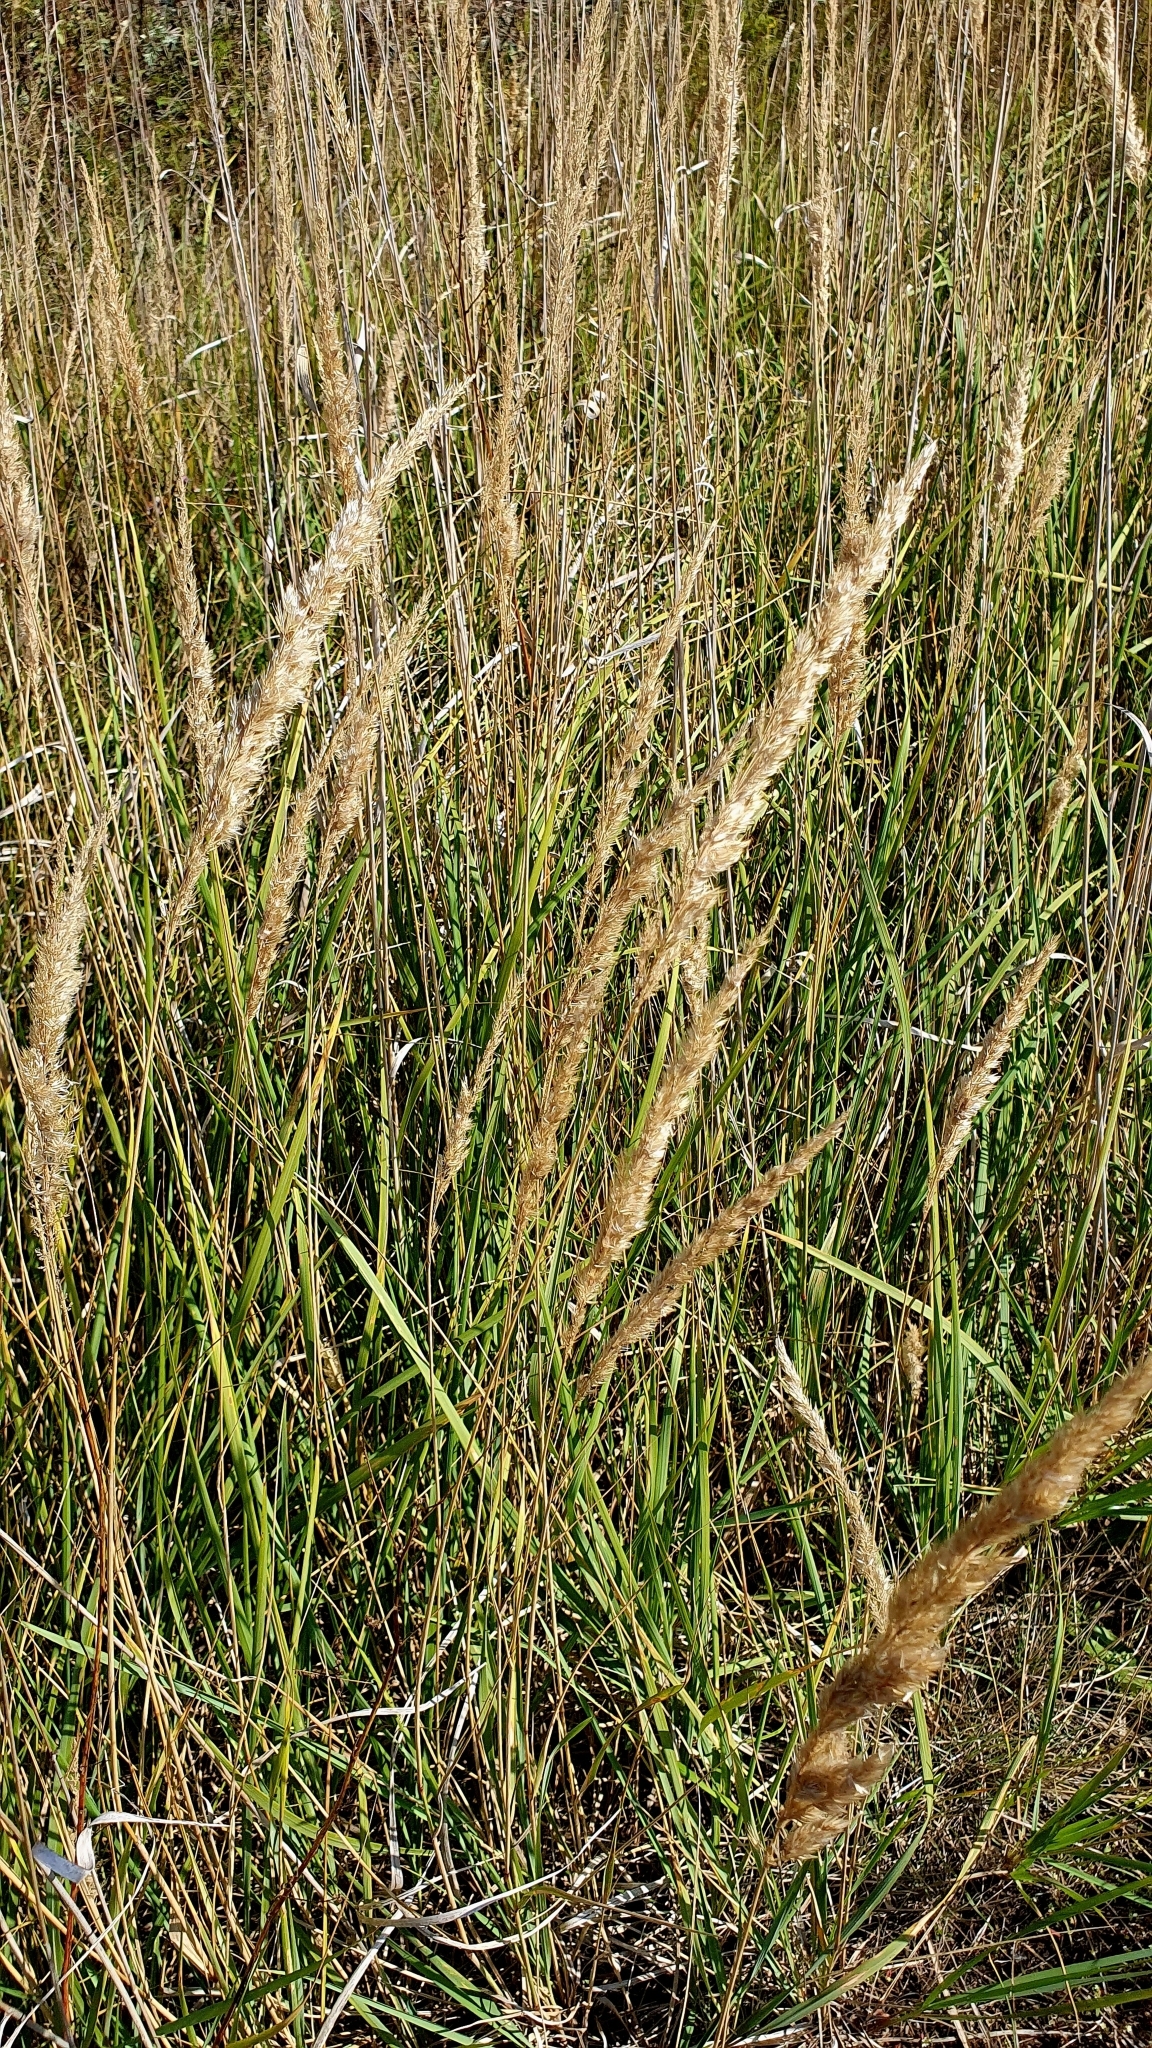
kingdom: Plantae
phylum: Tracheophyta
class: Liliopsida
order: Poales
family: Poaceae
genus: Calamagrostis
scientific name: Calamagrostis epigejos
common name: Wood small-reed
